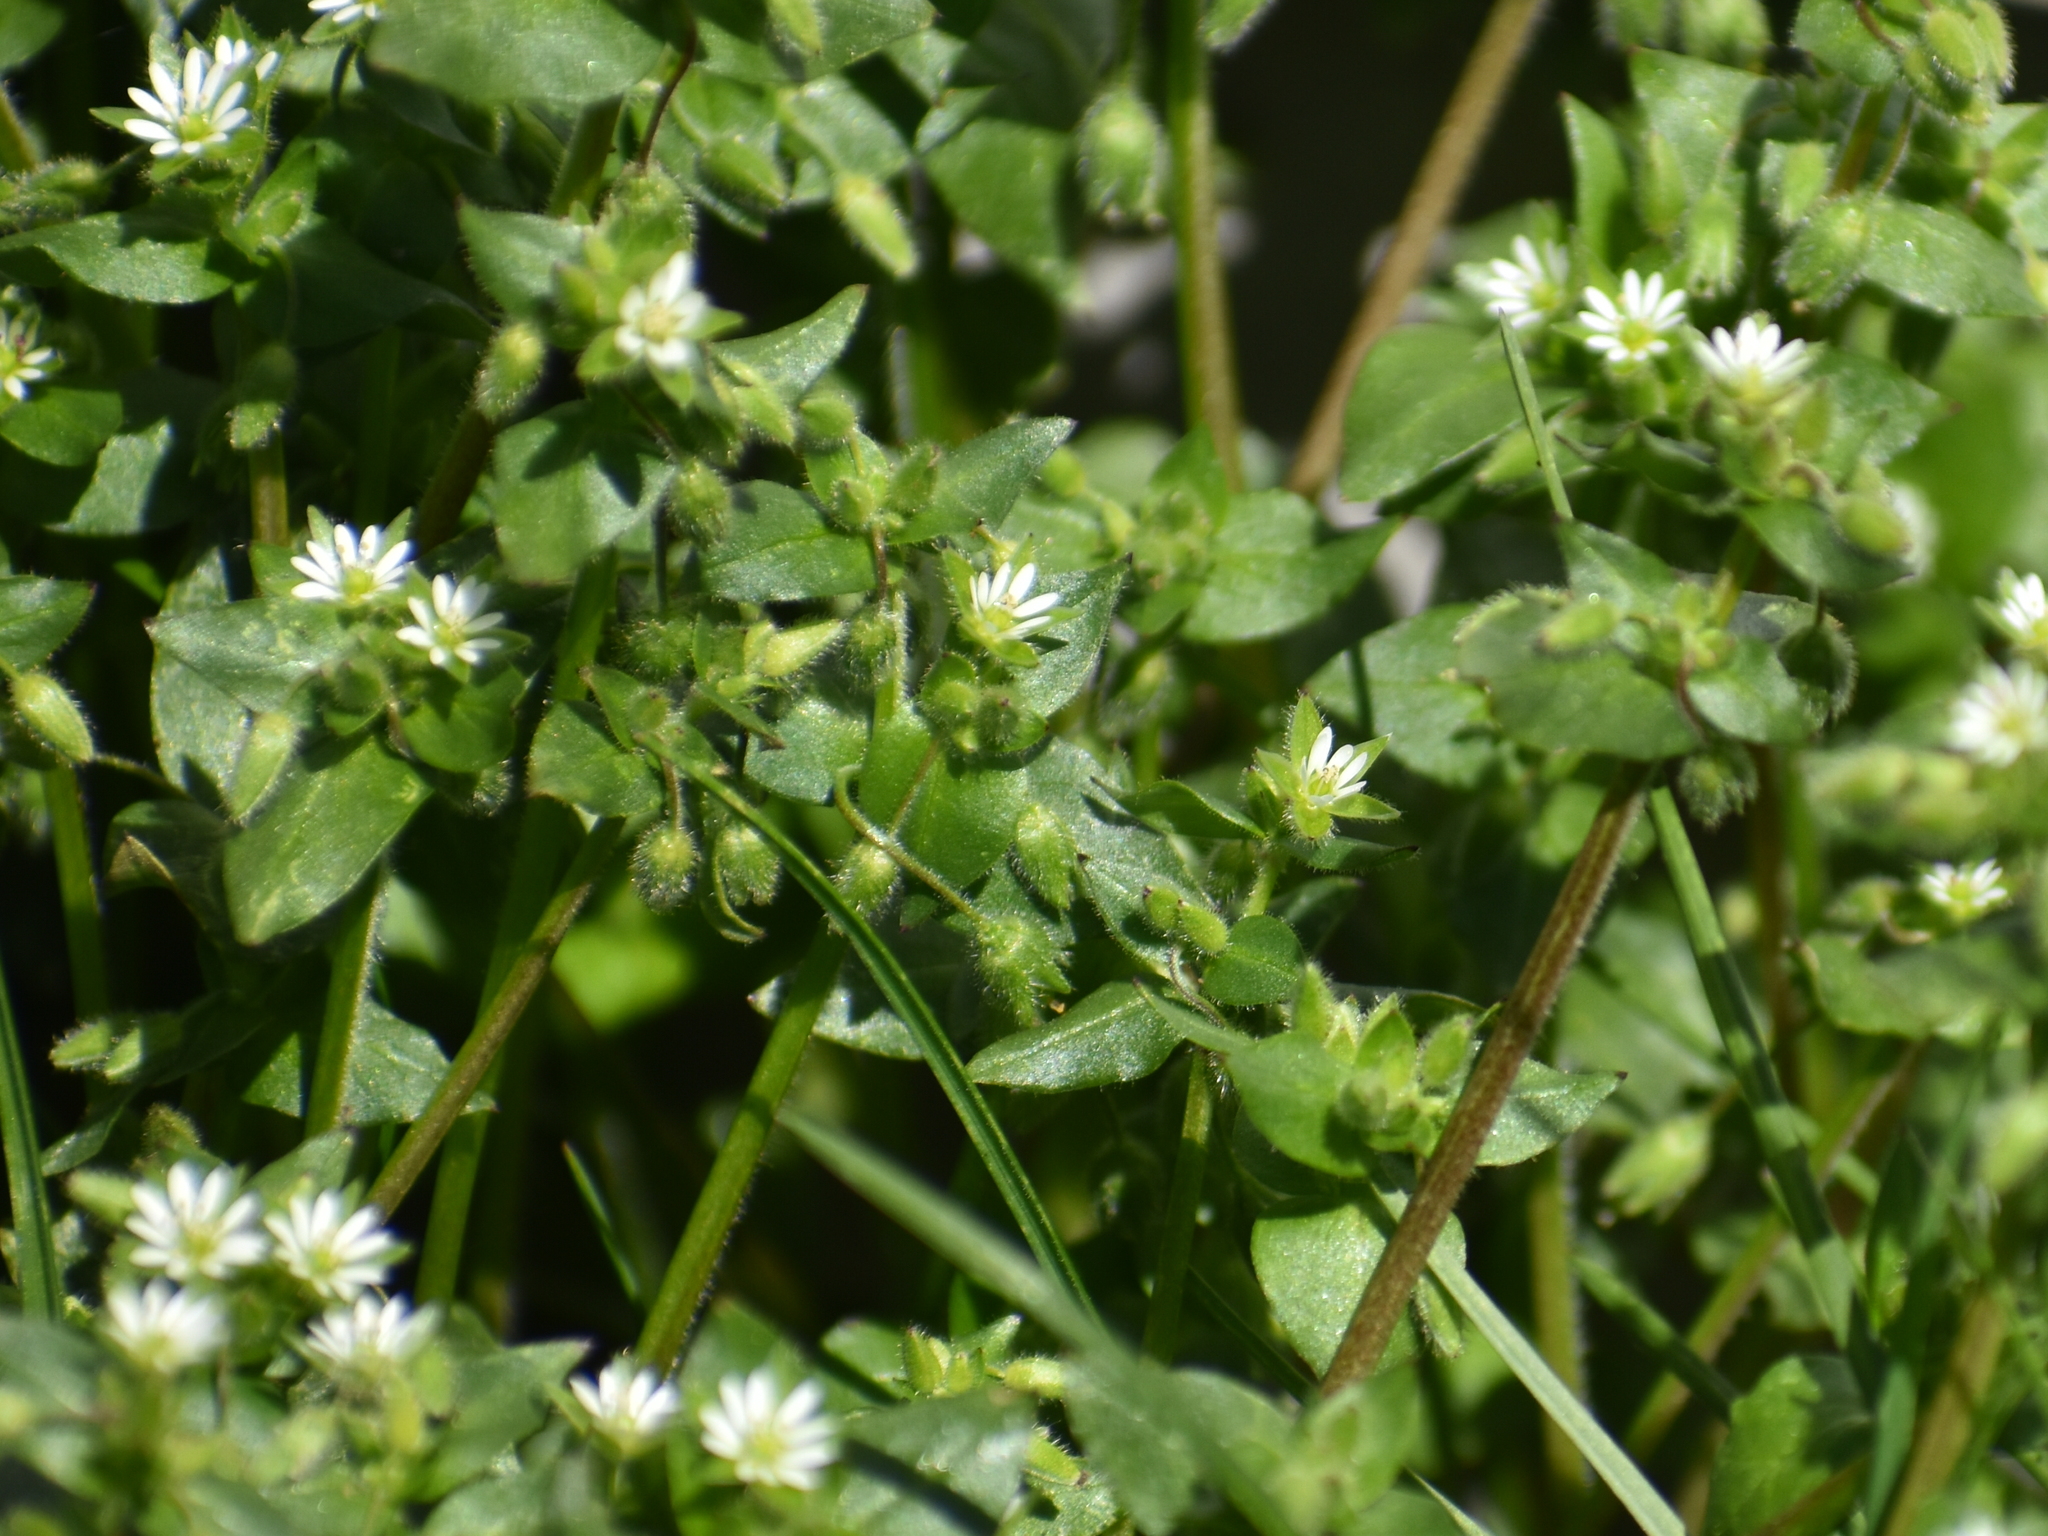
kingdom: Plantae
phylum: Tracheophyta
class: Magnoliopsida
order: Caryophyllales
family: Caryophyllaceae
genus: Stellaria
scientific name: Stellaria media
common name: Common chickweed
